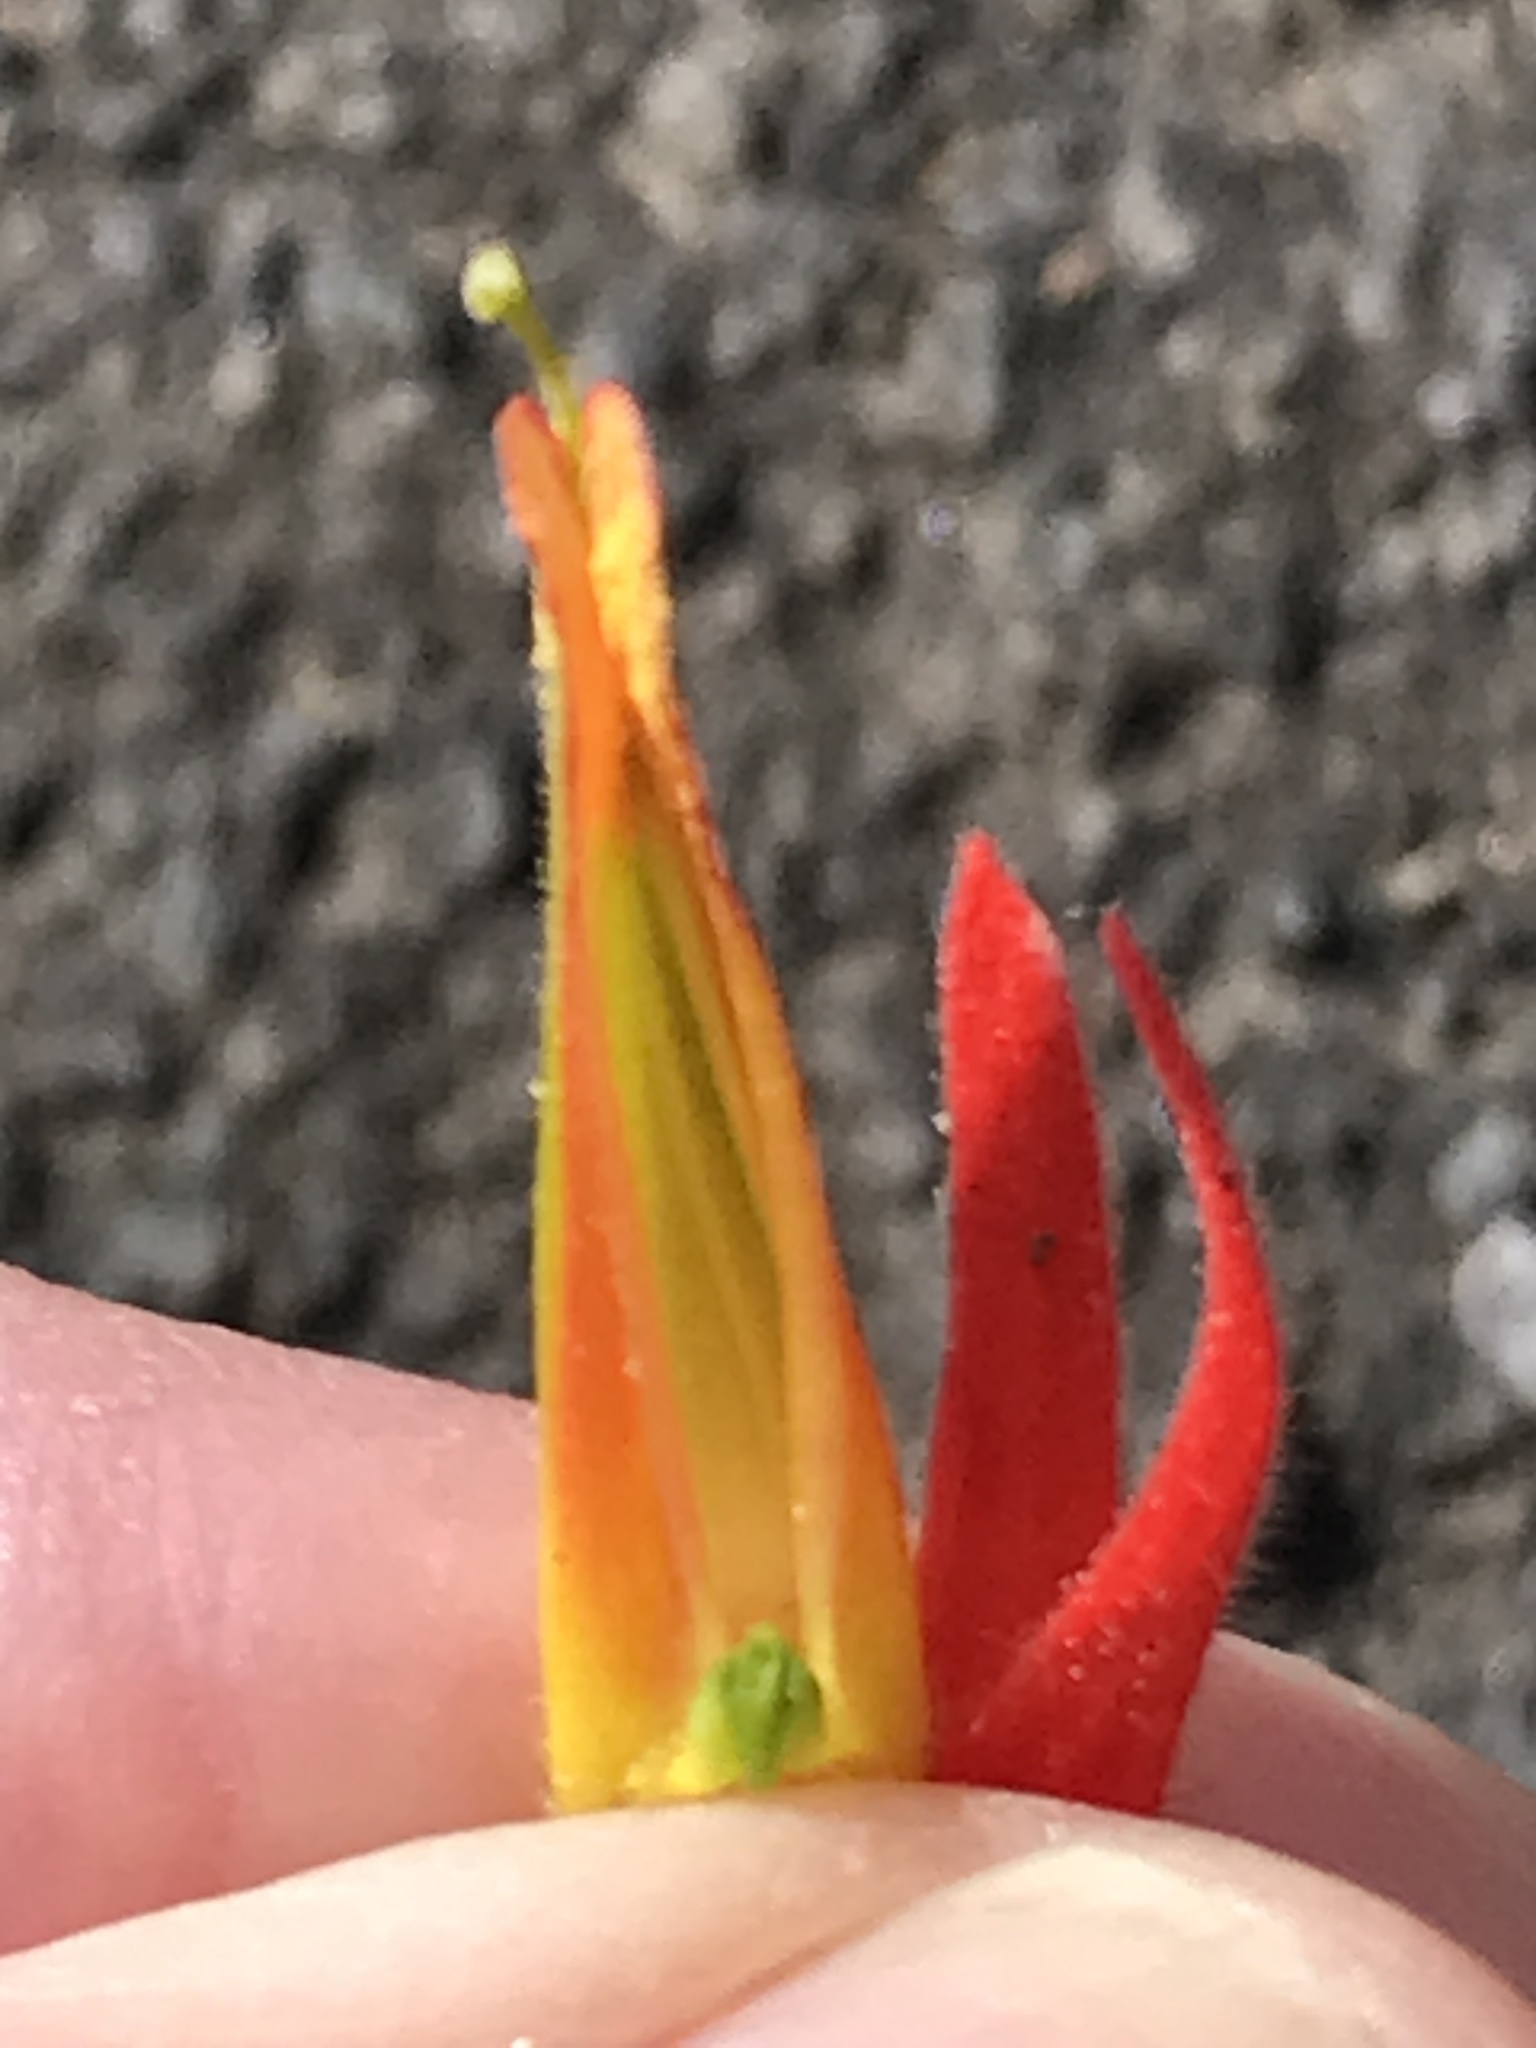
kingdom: Plantae
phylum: Tracheophyta
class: Magnoliopsida
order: Lamiales
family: Orobanchaceae
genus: Castilleja
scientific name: Castilleja subinclusa
